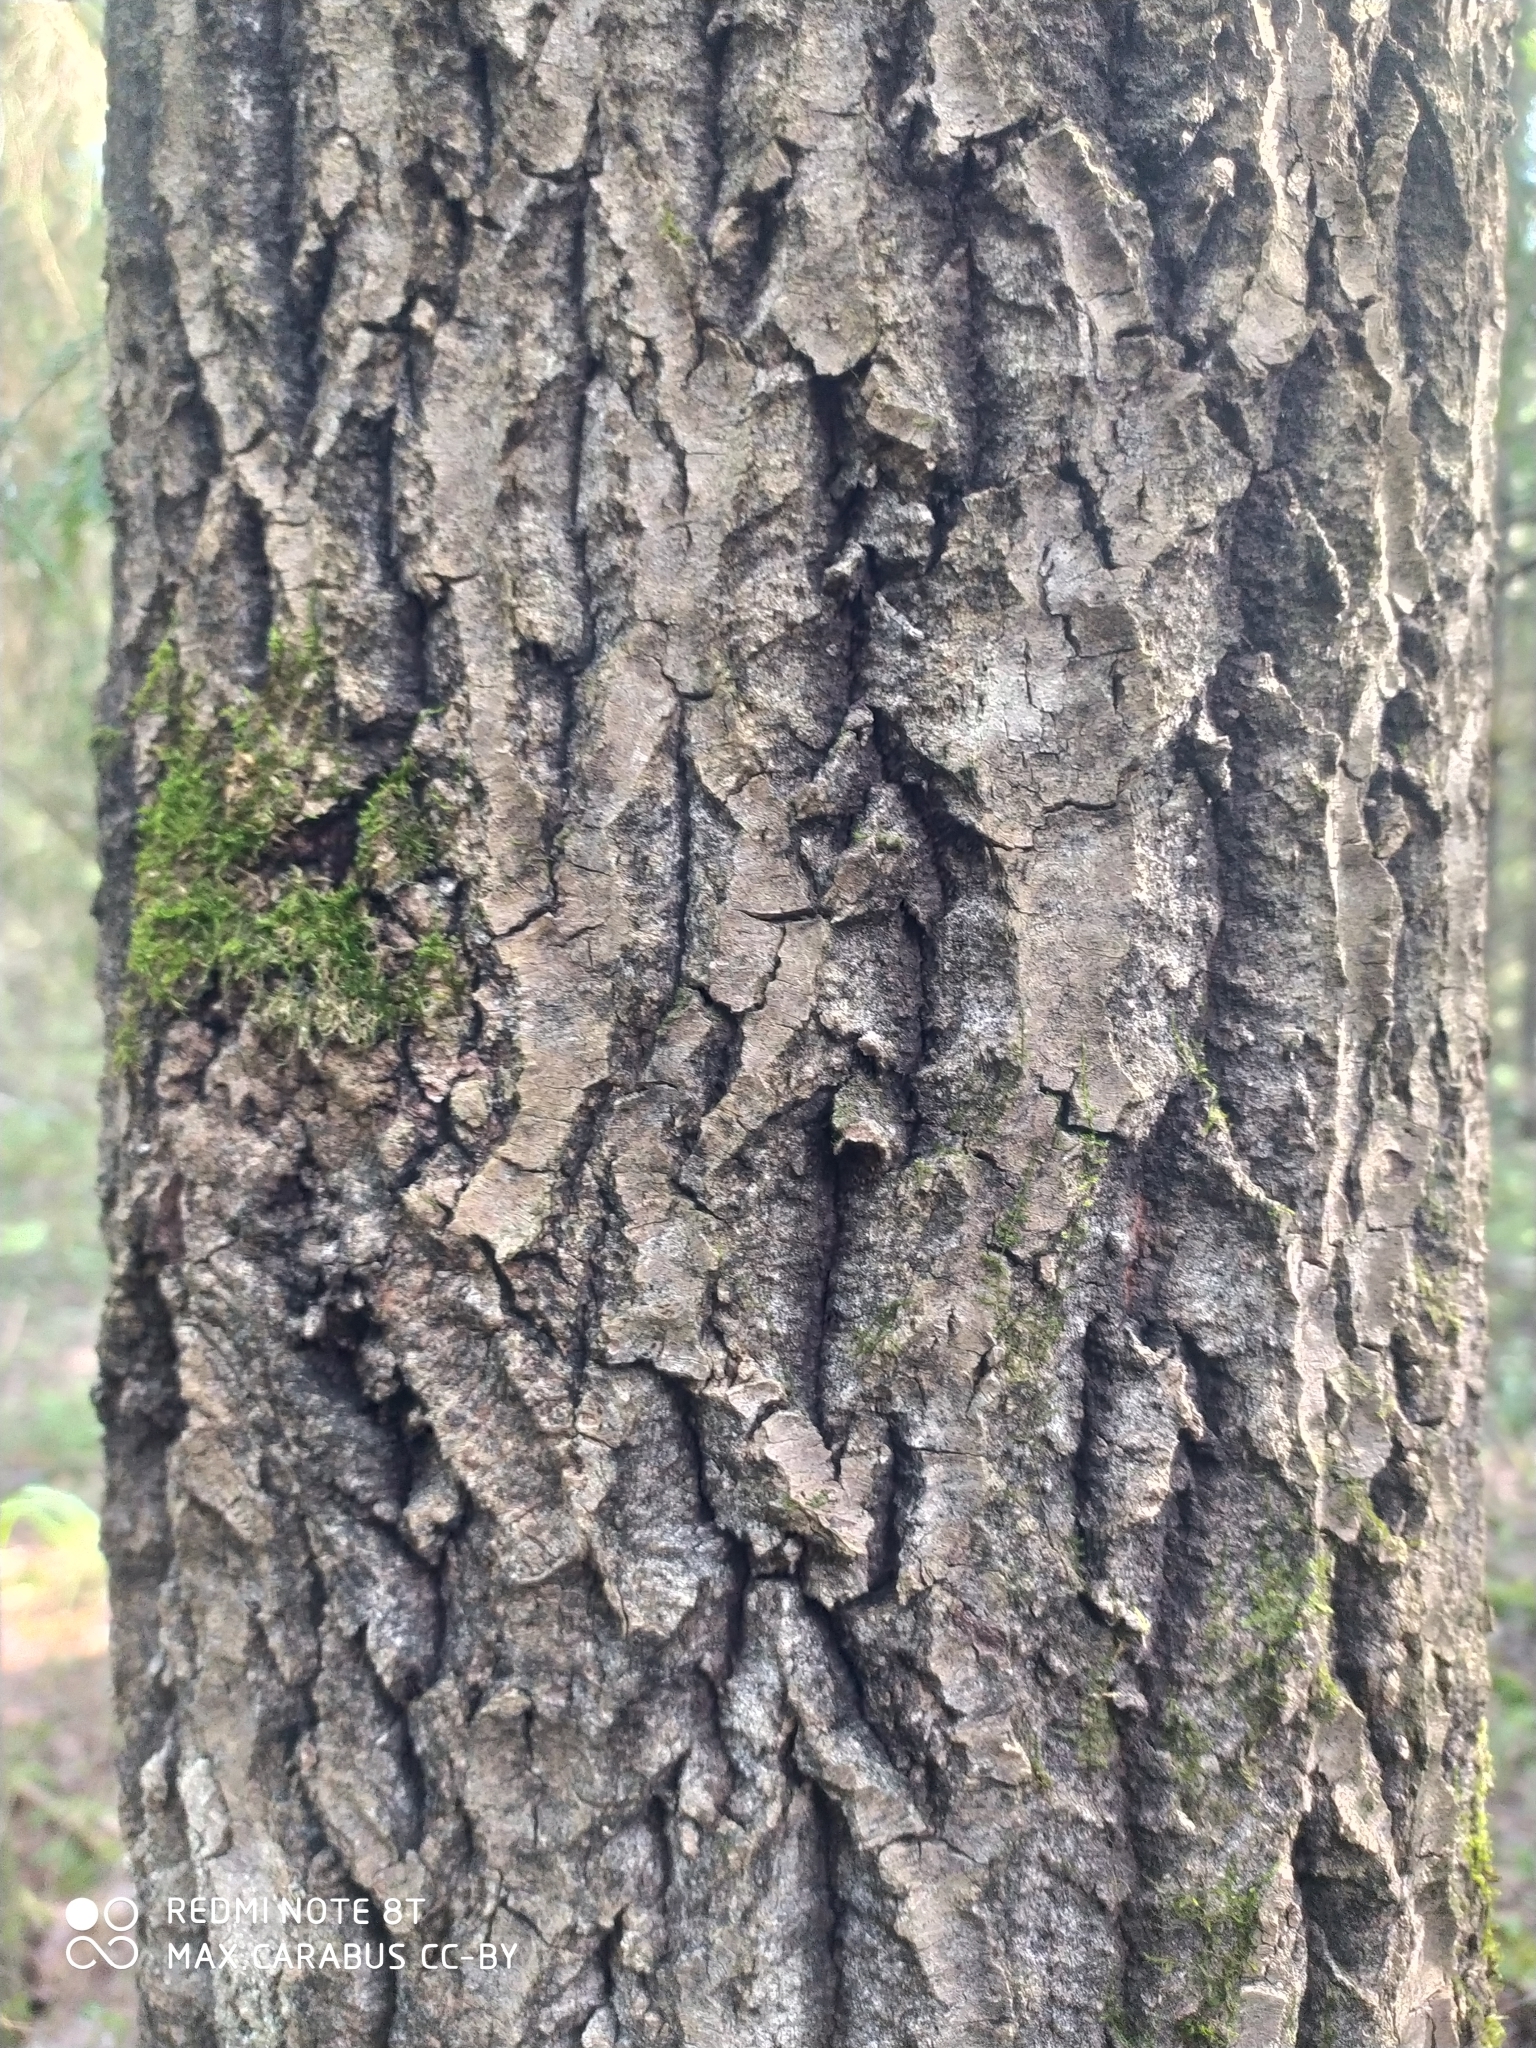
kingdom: Plantae
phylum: Tracheophyta
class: Magnoliopsida
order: Malpighiales
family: Salicaceae
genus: Populus
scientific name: Populus tremula
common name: European aspen
